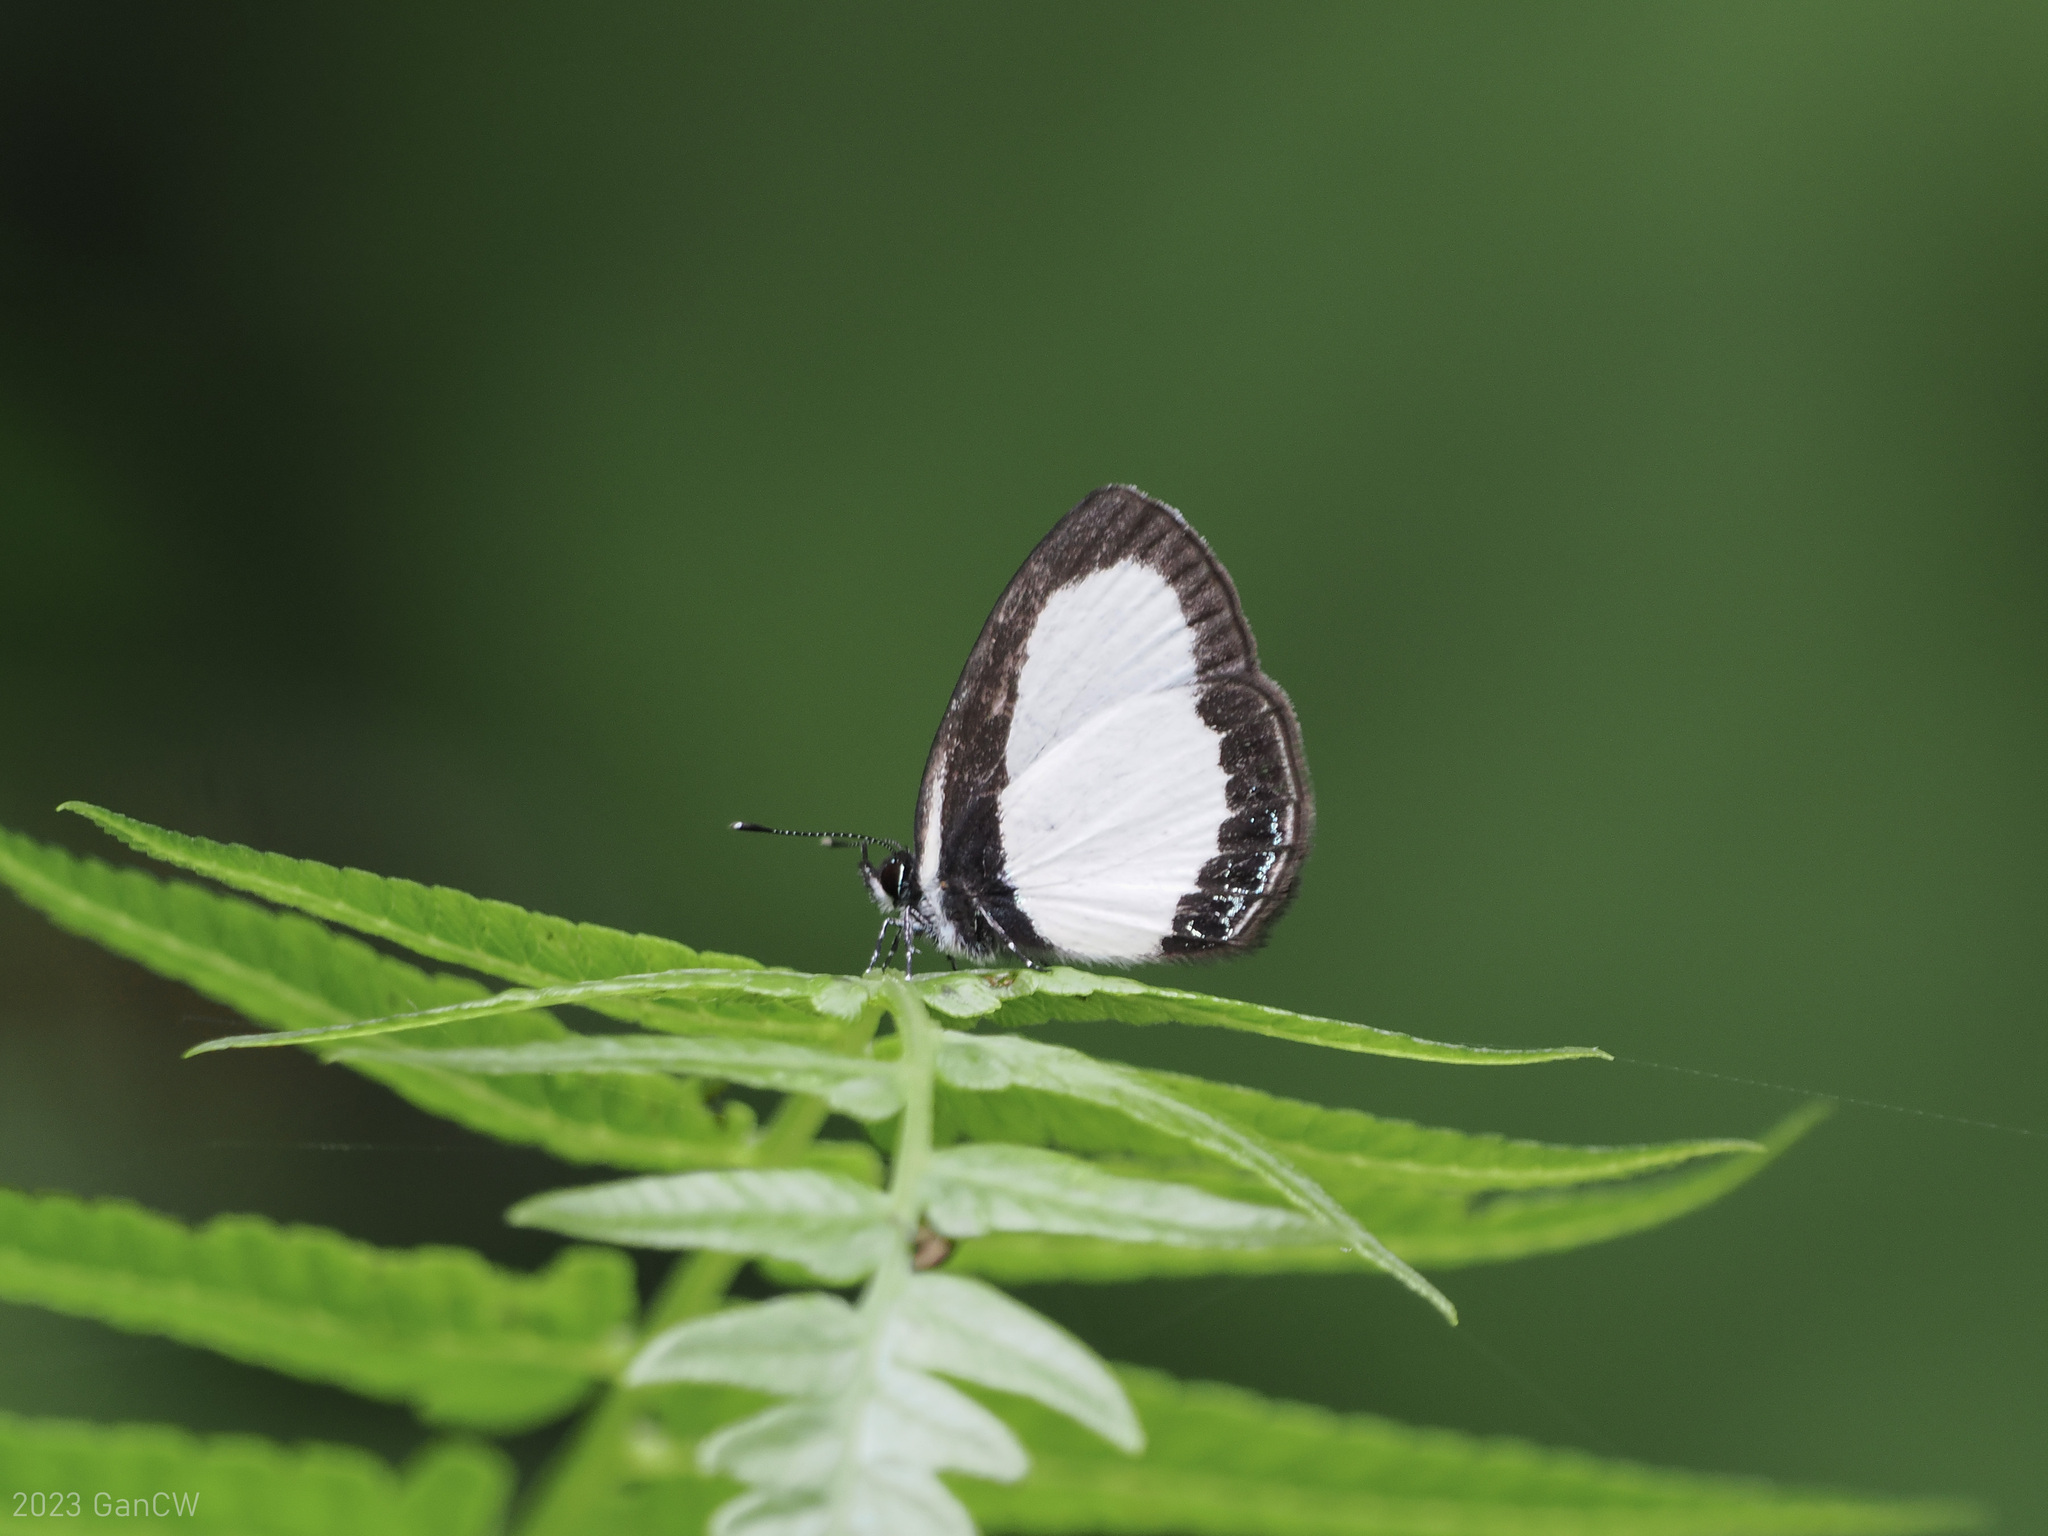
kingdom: Animalia
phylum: Arthropoda
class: Insecta
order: Lepidoptera
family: Lycaenidae
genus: Psychonotis
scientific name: Psychonotis
